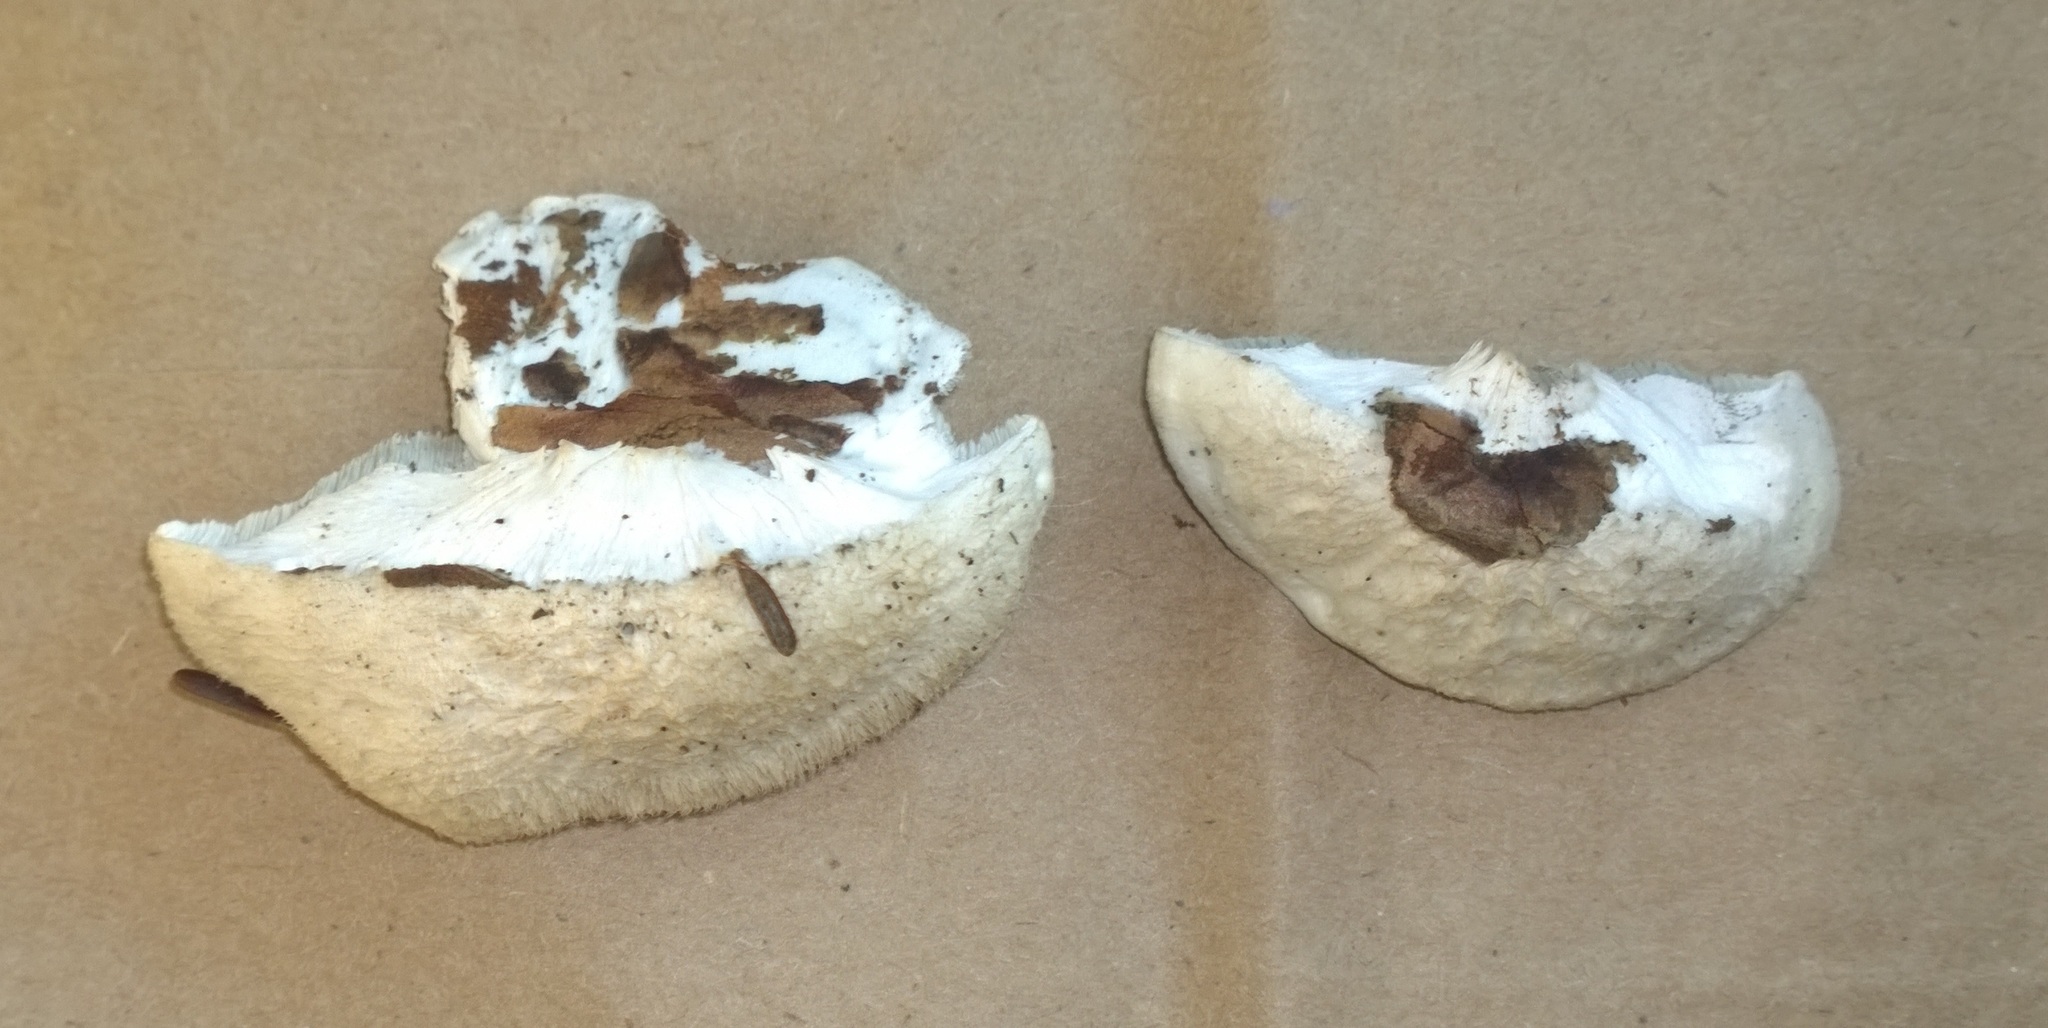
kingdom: Fungi
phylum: Basidiomycota
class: Agaricomycetes
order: Polyporales
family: Polyporaceae
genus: Cyanosporus
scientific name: Cyanosporus caesius
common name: Blue cheese polypore
